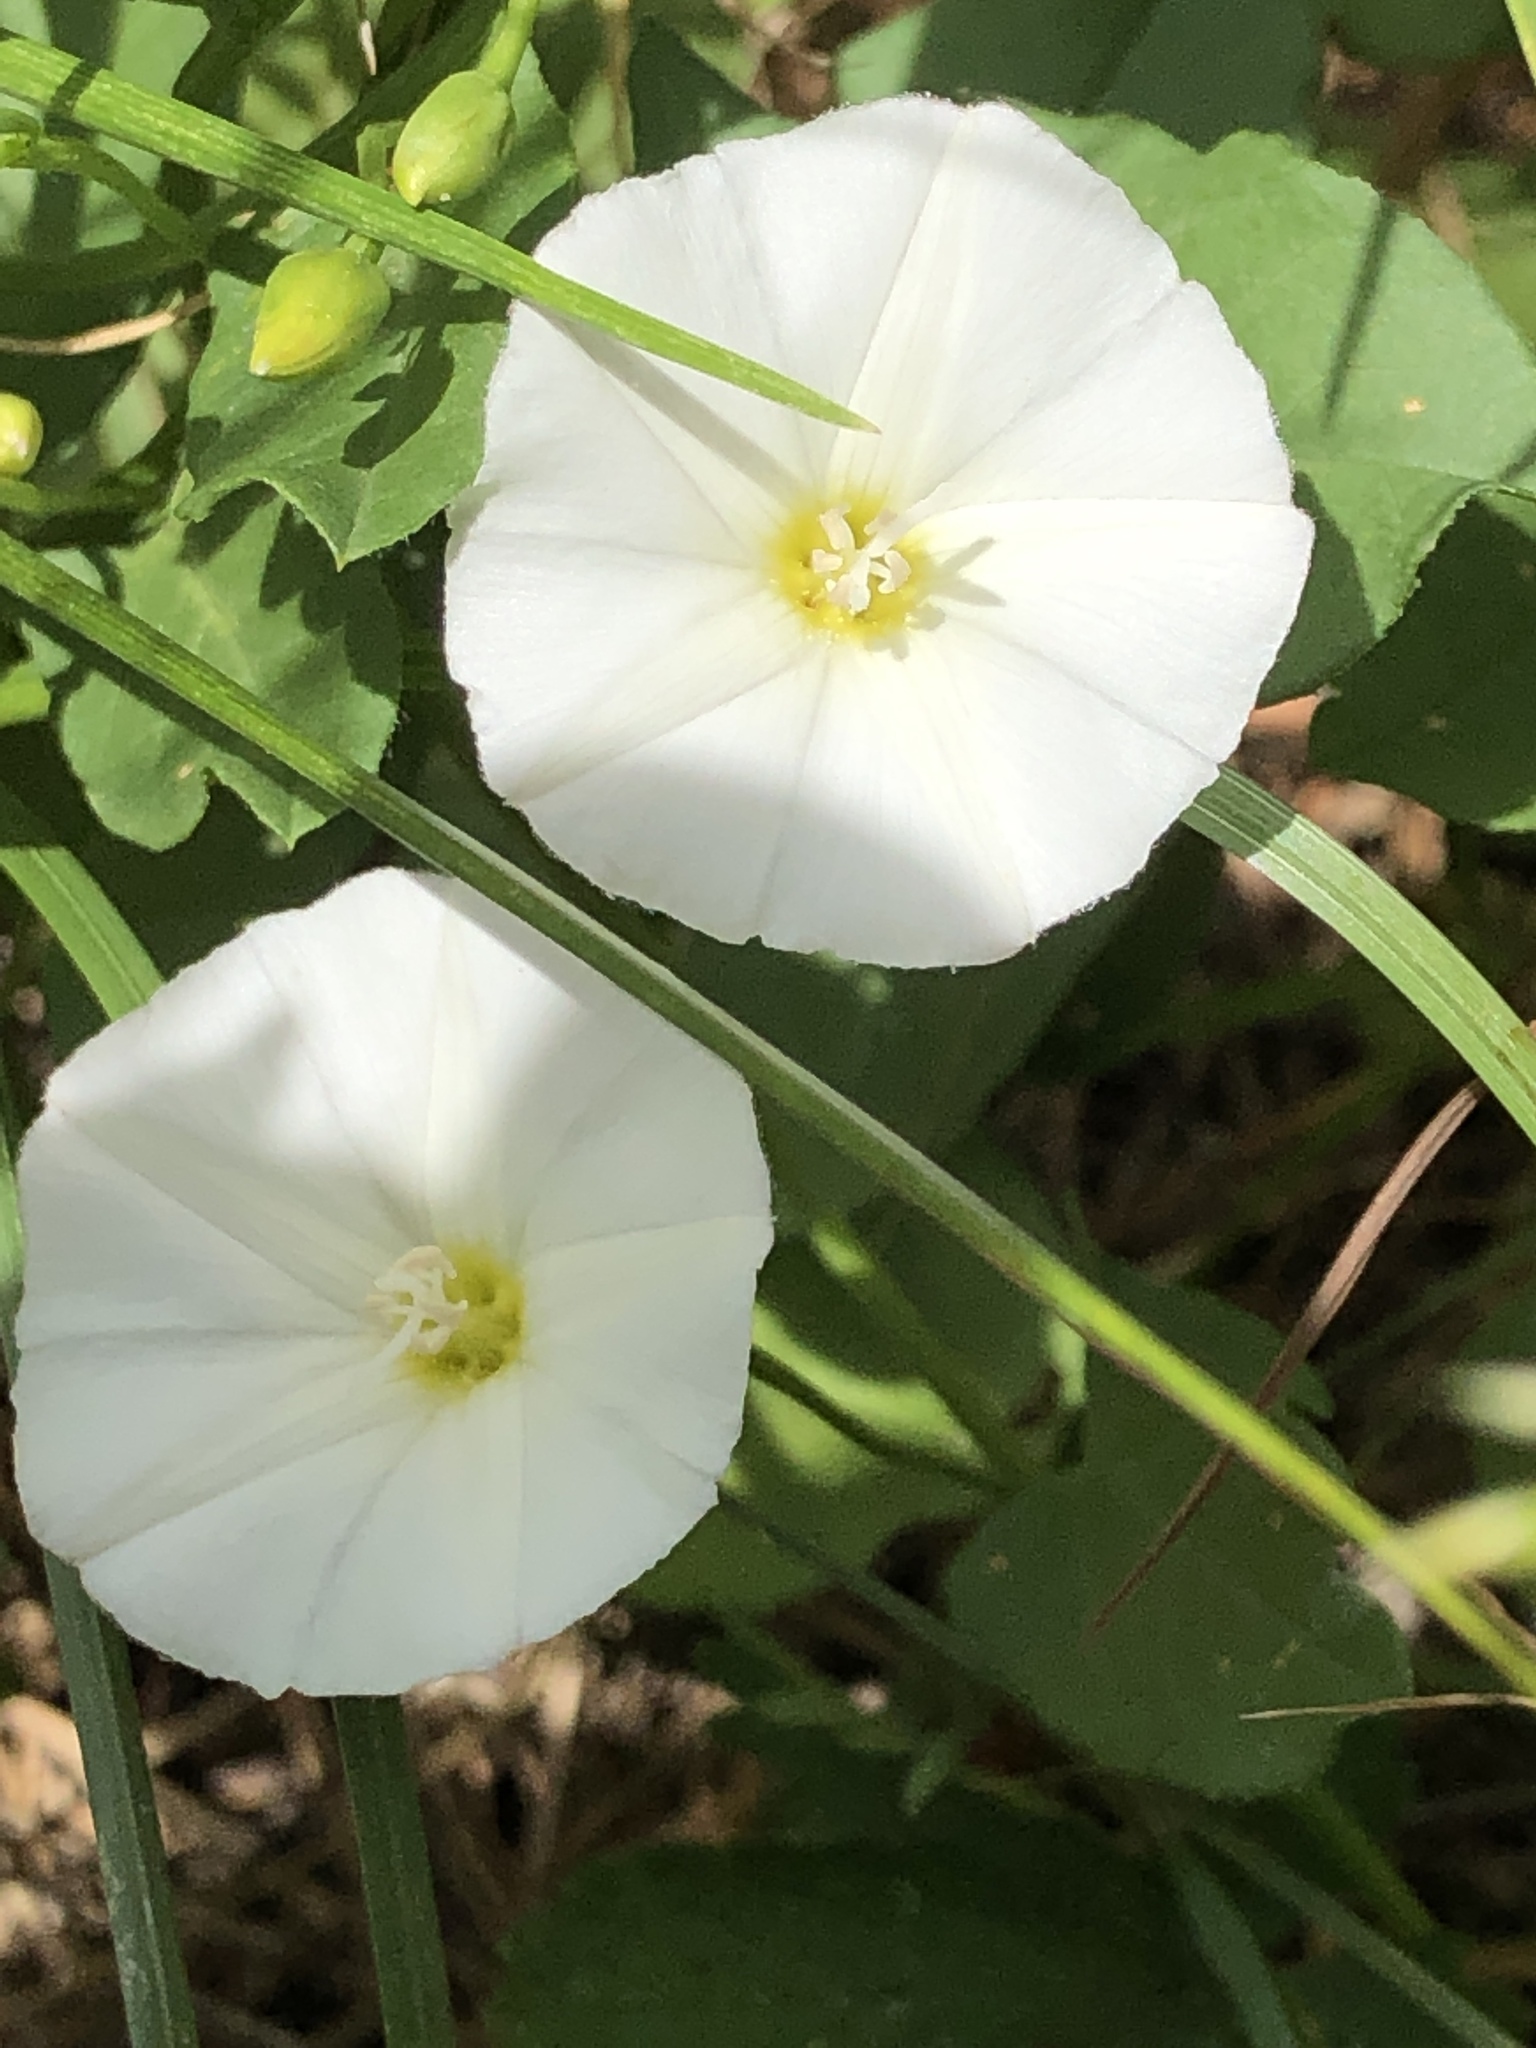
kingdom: Plantae
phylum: Tracheophyta
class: Magnoliopsida
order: Solanales
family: Convolvulaceae
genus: Convolvulus
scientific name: Convolvulus arvensis
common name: Field bindweed
